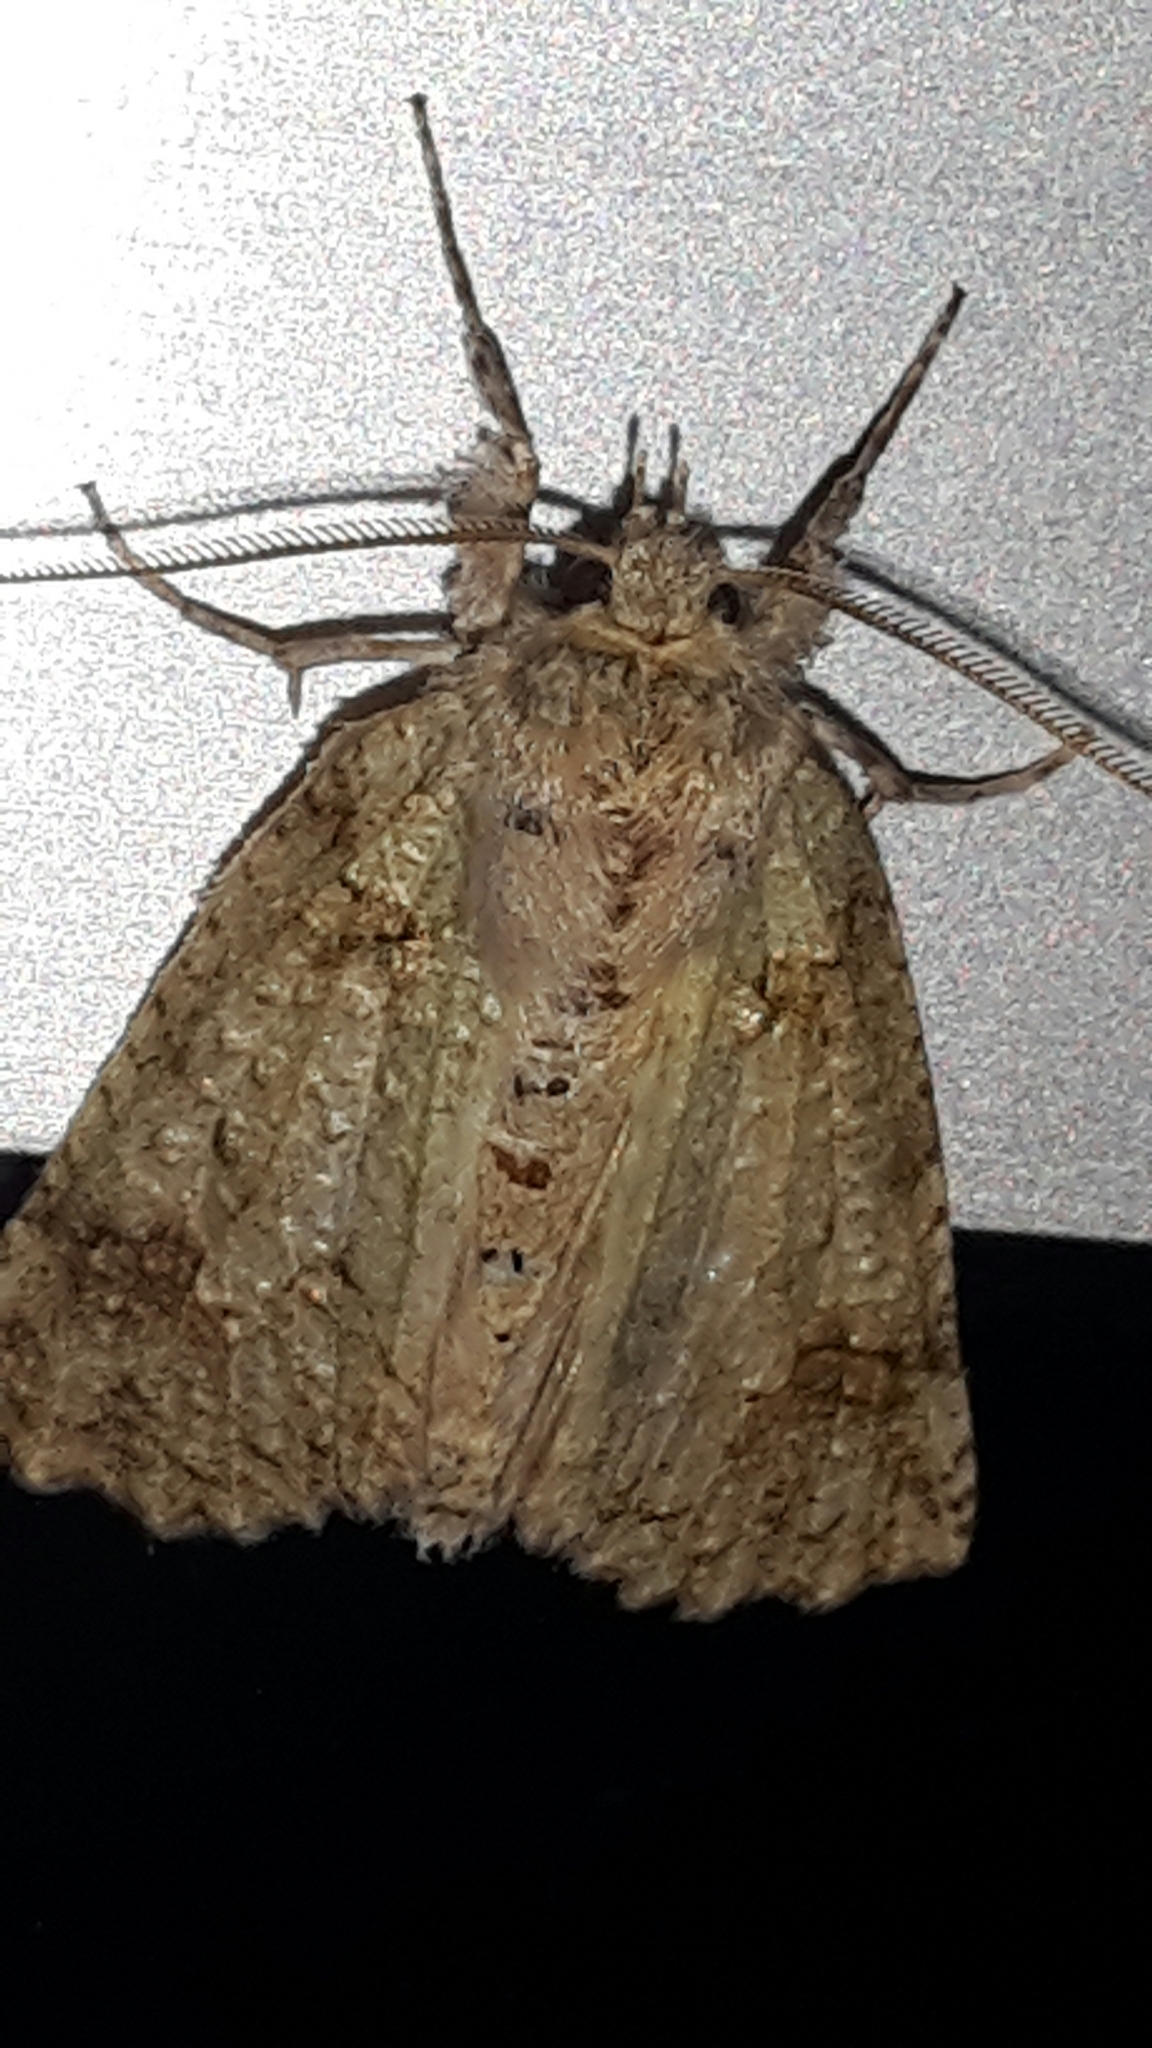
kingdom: Animalia
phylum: Arthropoda
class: Insecta
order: Lepidoptera
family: Geometridae
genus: Declana
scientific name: Declana floccosa
